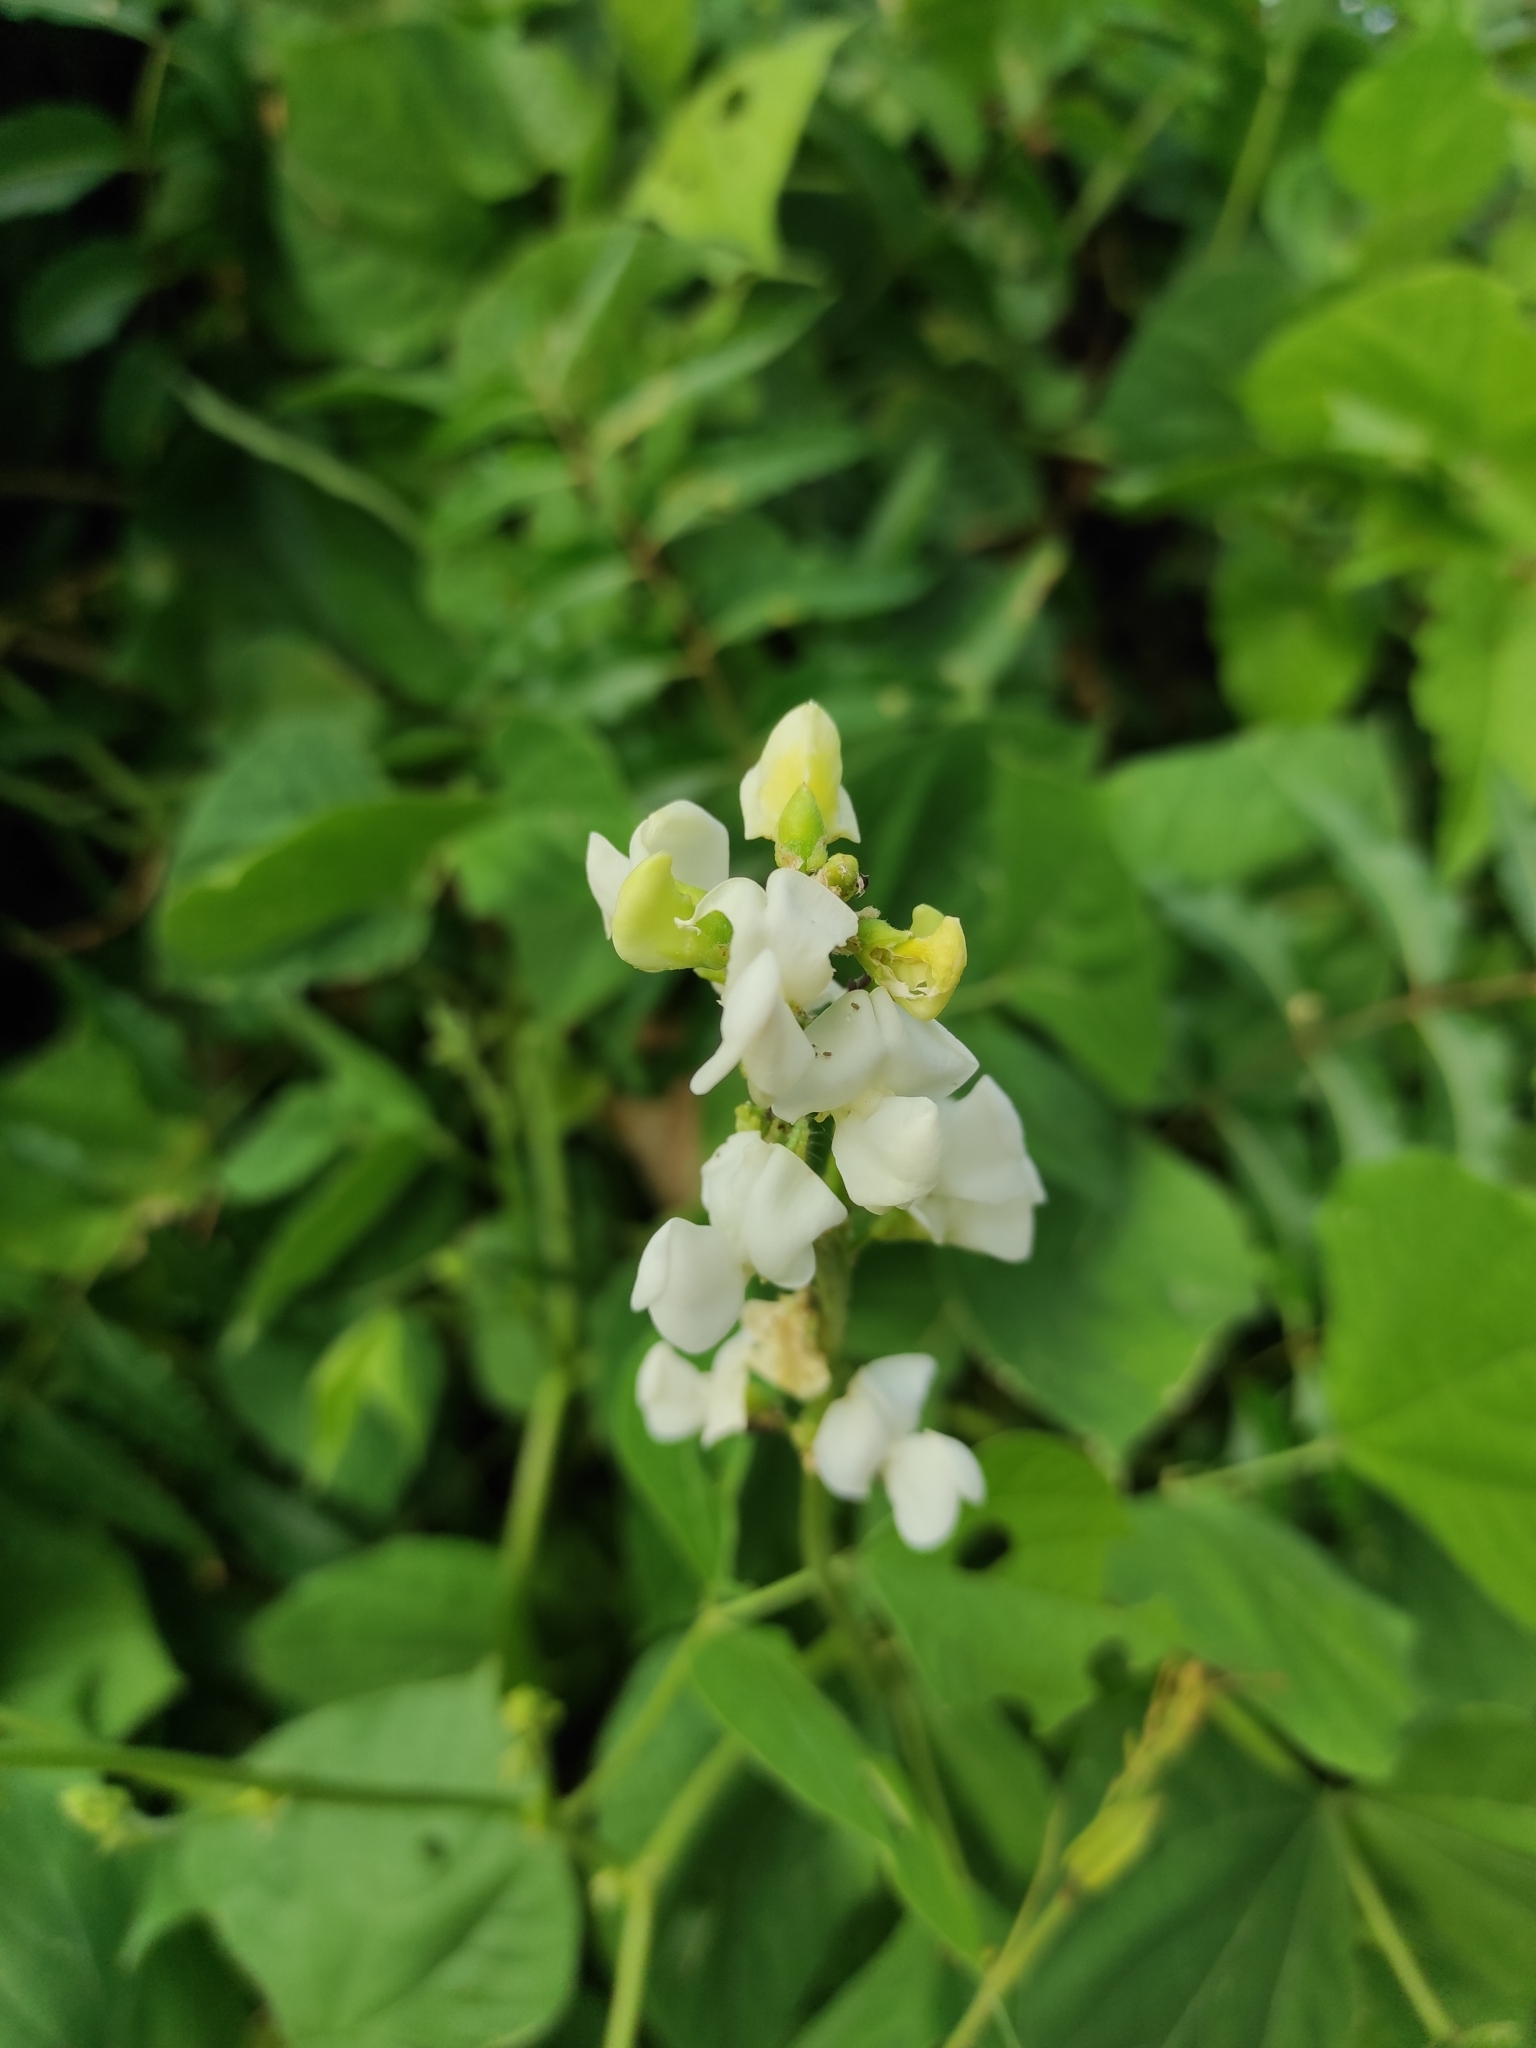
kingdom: Plantae
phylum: Tracheophyta
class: Magnoliopsida
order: Fabales
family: Fabaceae
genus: Lablab
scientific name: Lablab purpureus
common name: Lablab-bean
